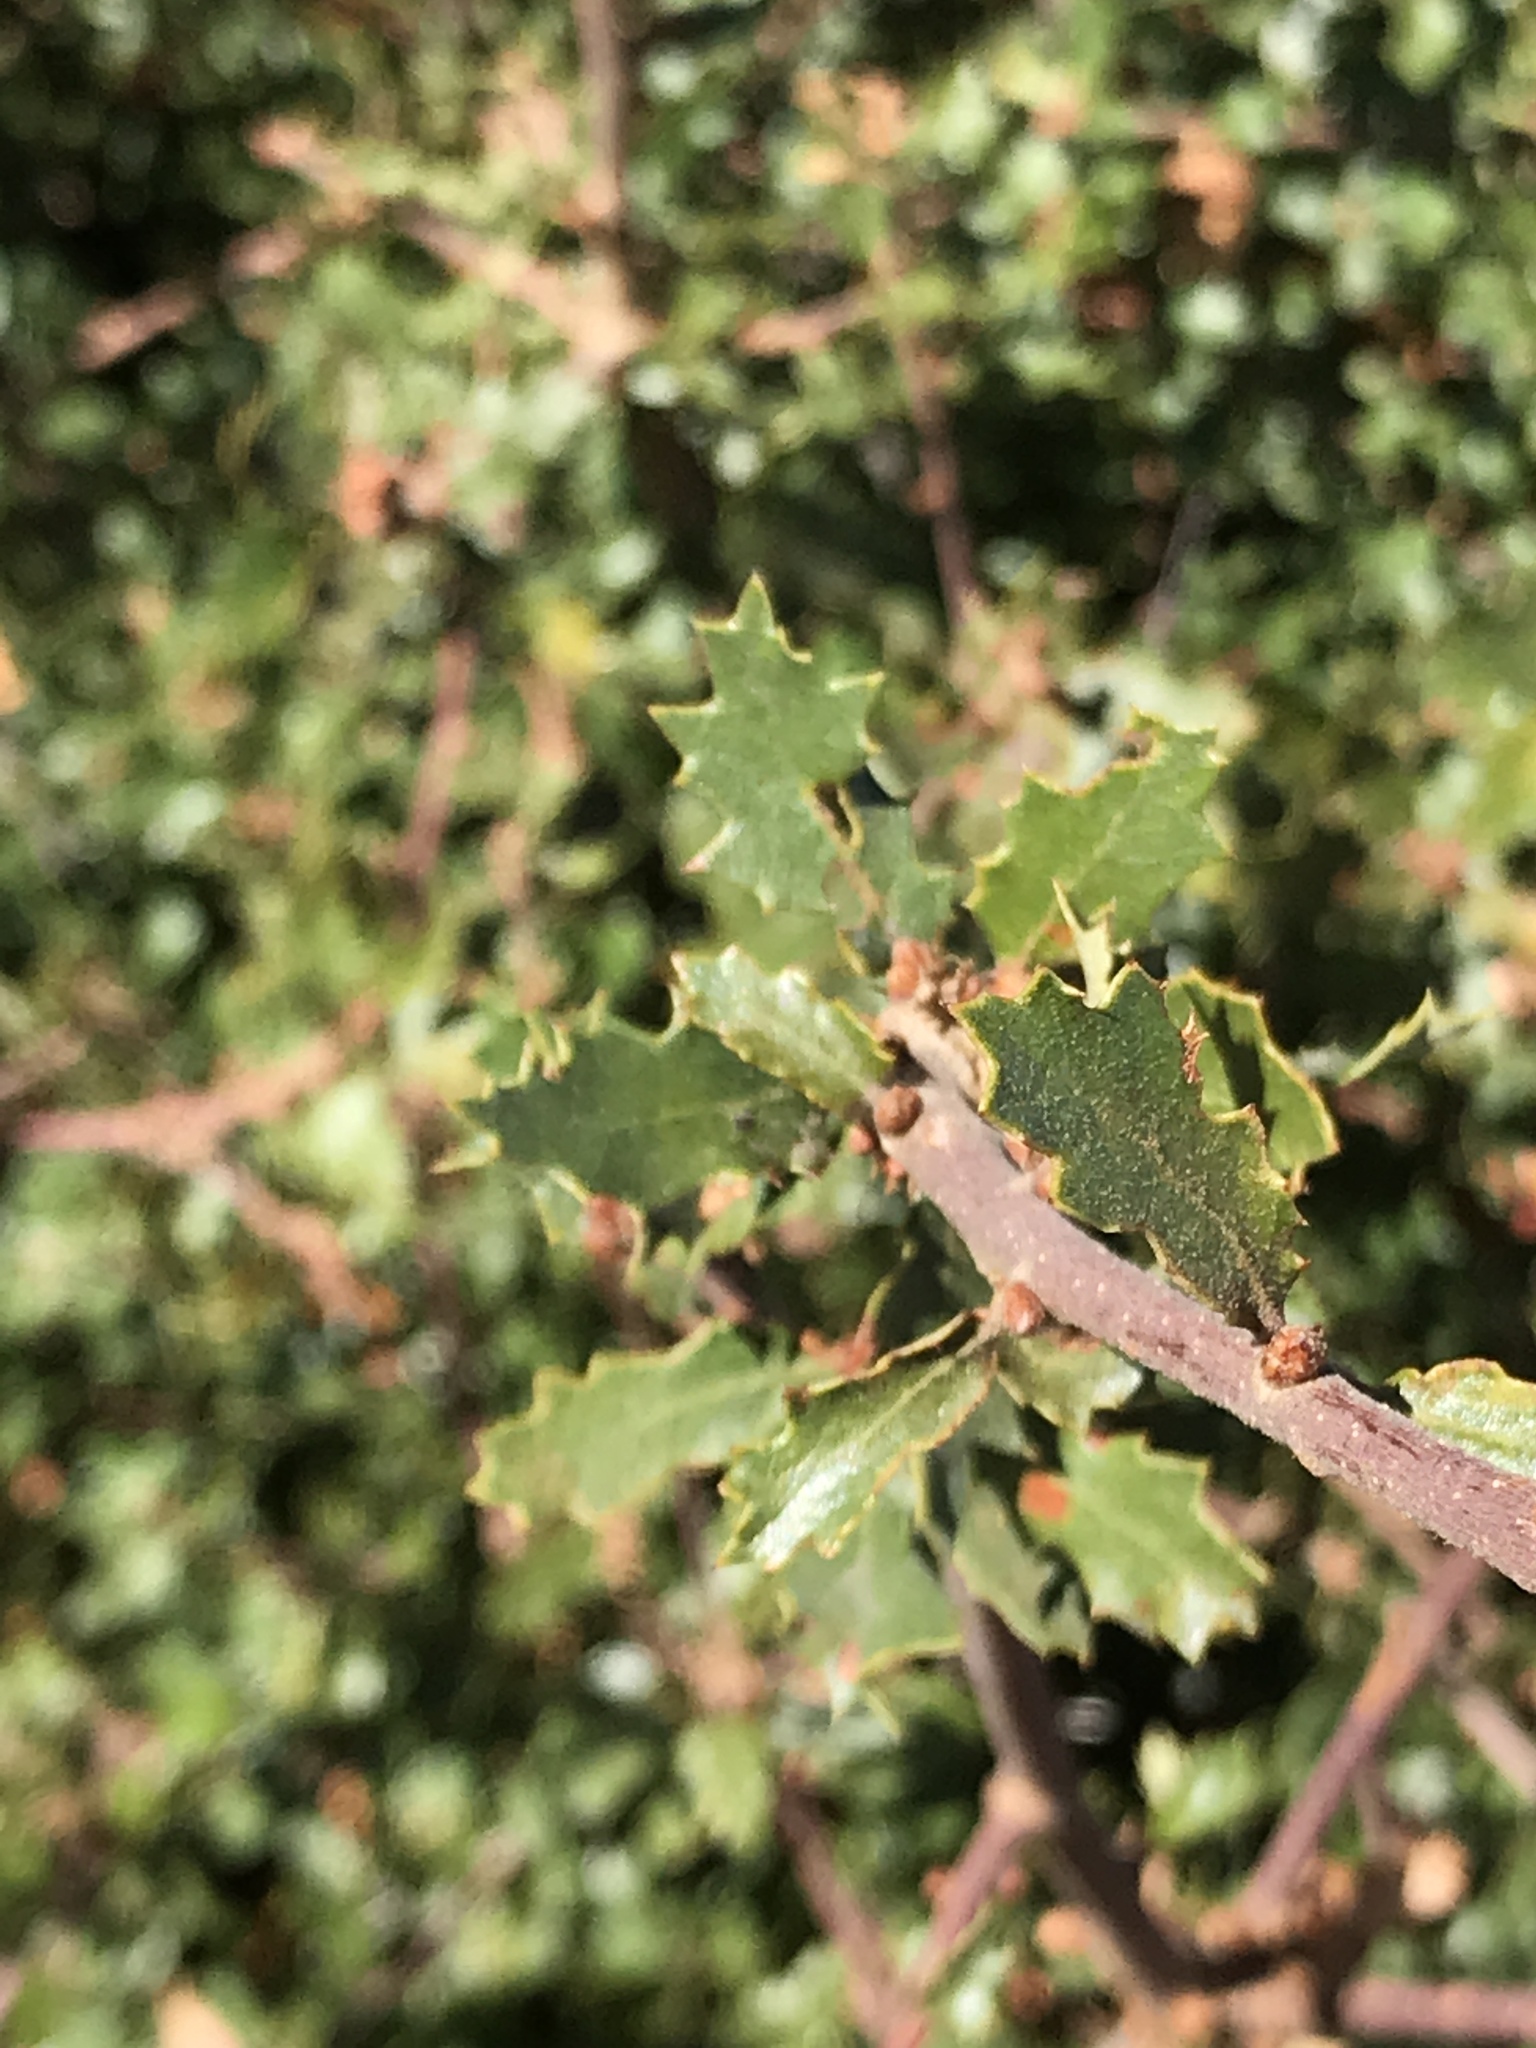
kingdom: Plantae
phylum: Tracheophyta
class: Magnoliopsida
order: Fagales
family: Fagaceae
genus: Quercus
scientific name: Quercus berberidifolia
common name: California scrub oak
